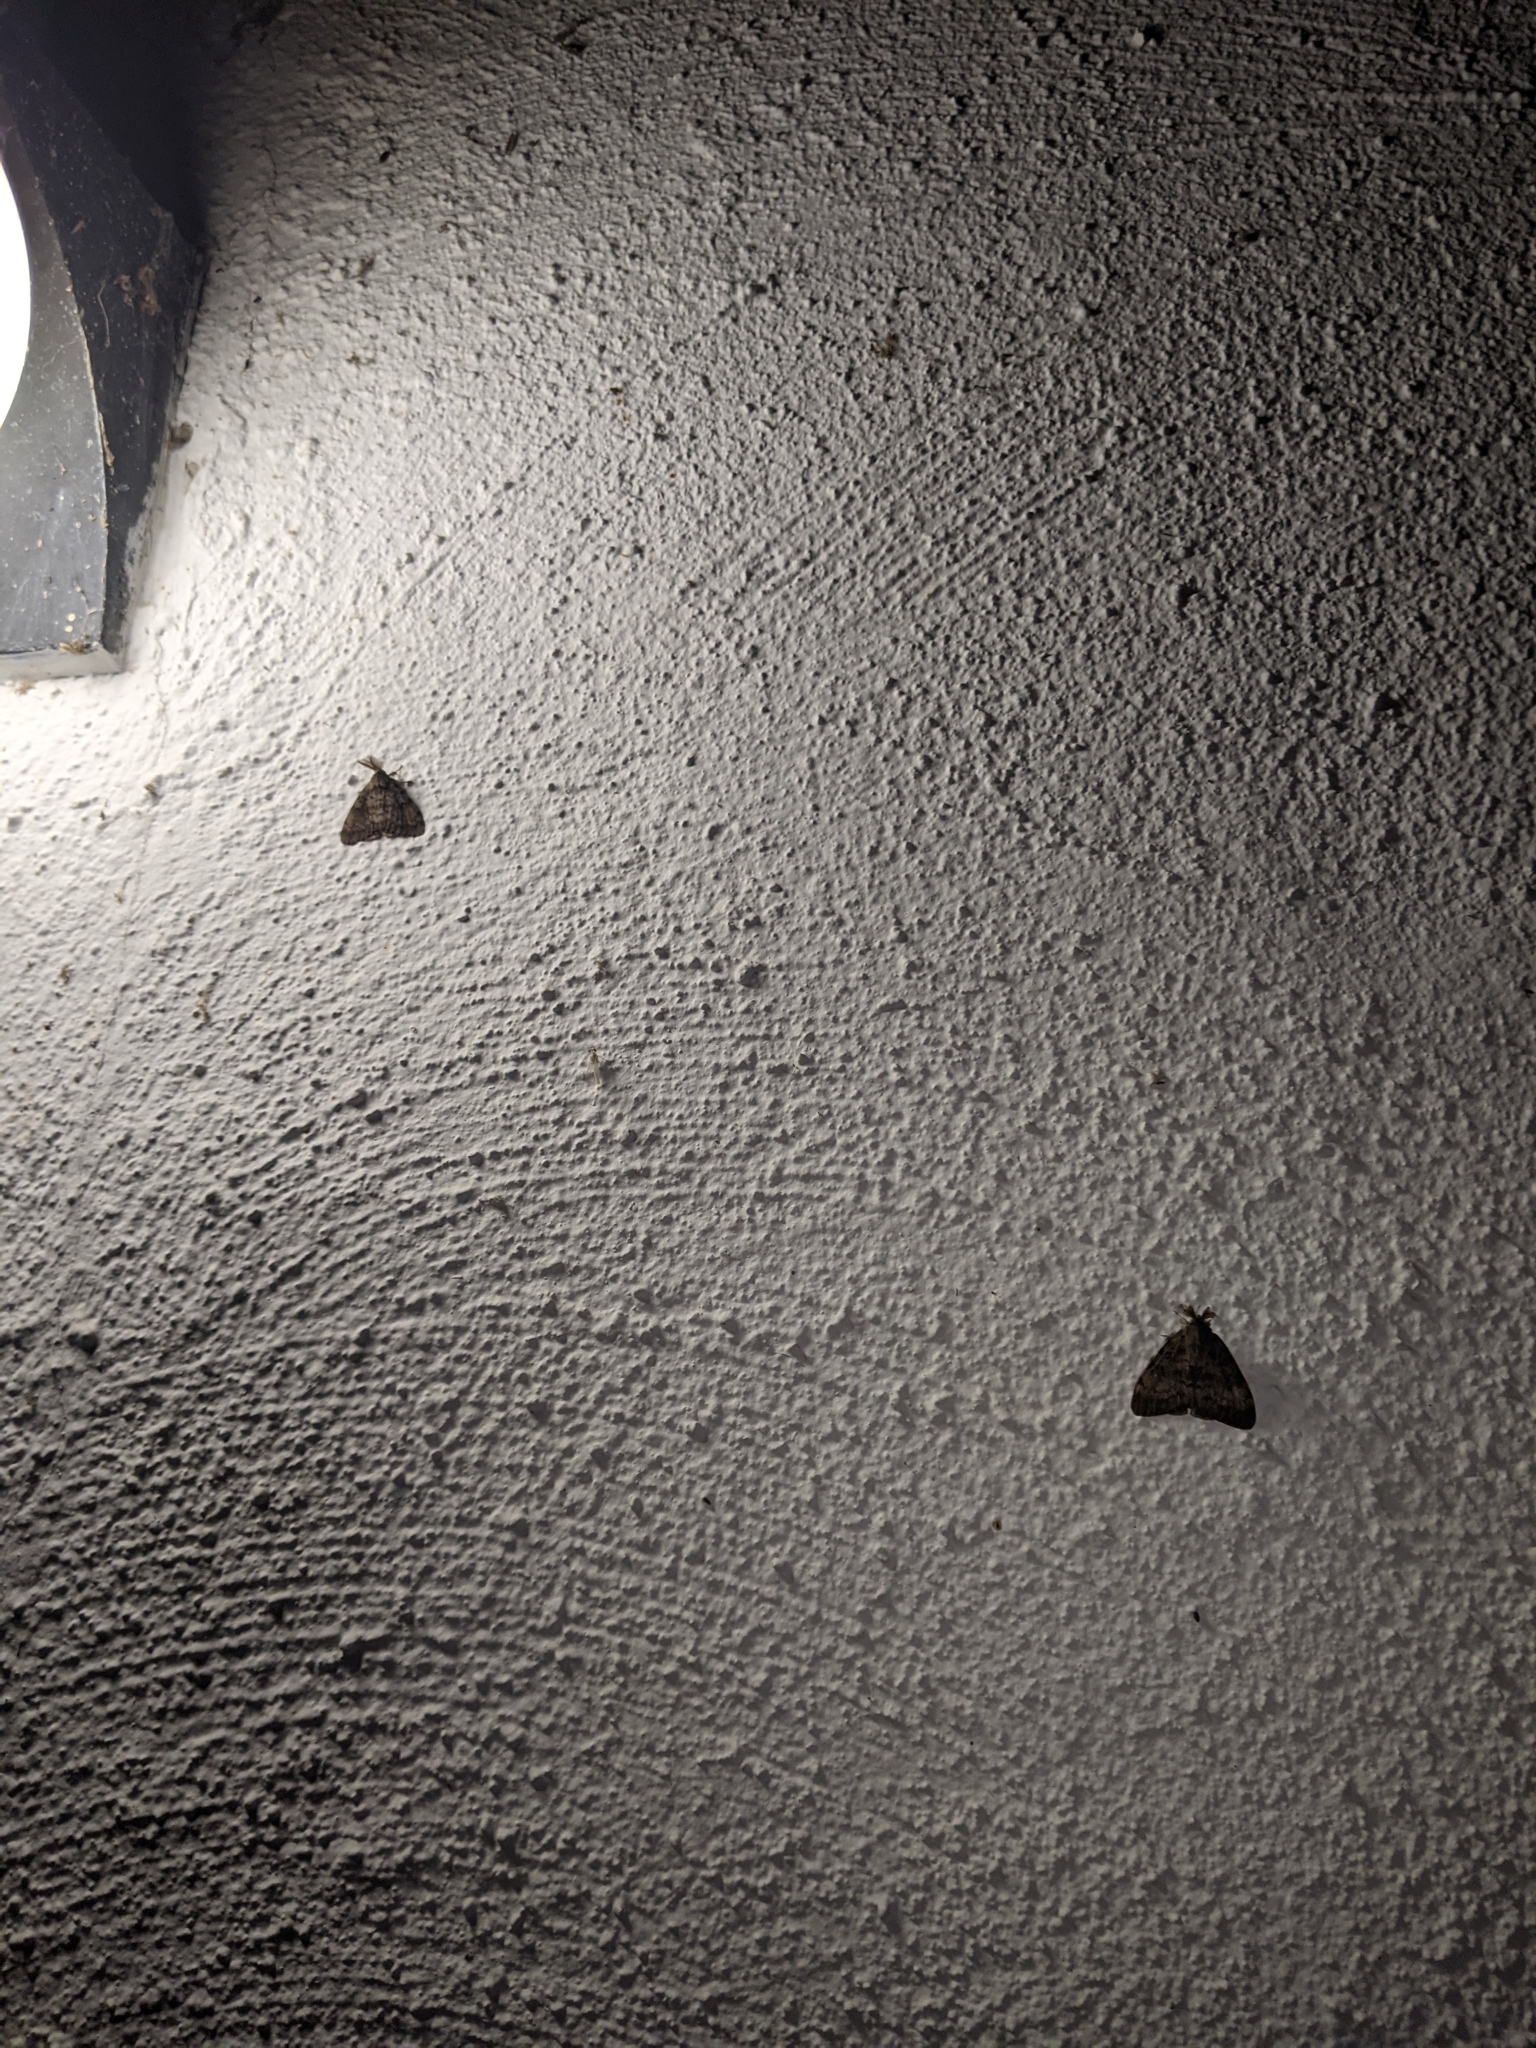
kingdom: Animalia
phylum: Arthropoda
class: Insecta
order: Lepidoptera
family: Erebidae
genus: Lymantria
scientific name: Lymantria dispar
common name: Gypsy moth
